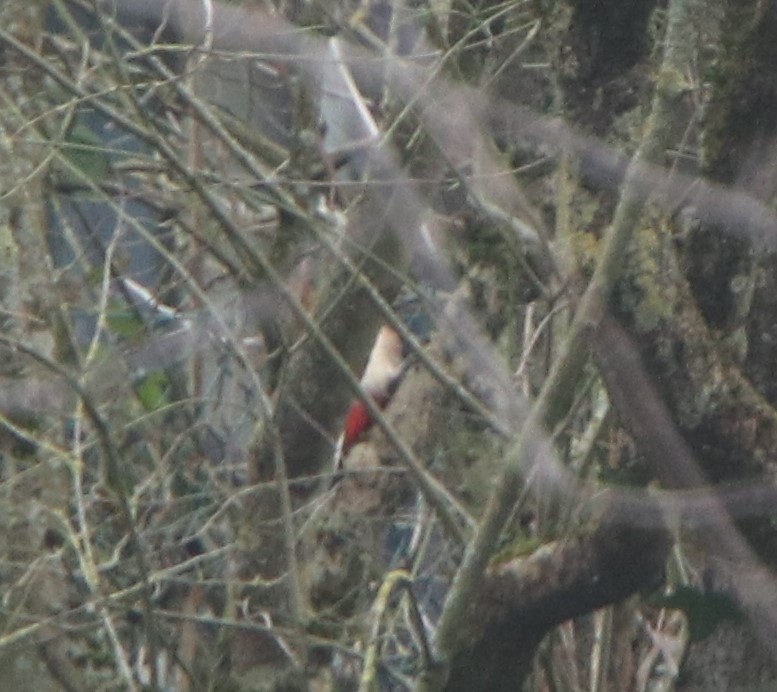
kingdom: Animalia
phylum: Chordata
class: Aves
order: Piciformes
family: Picidae
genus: Dendrocopos
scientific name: Dendrocopos major
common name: Great spotted woodpecker
